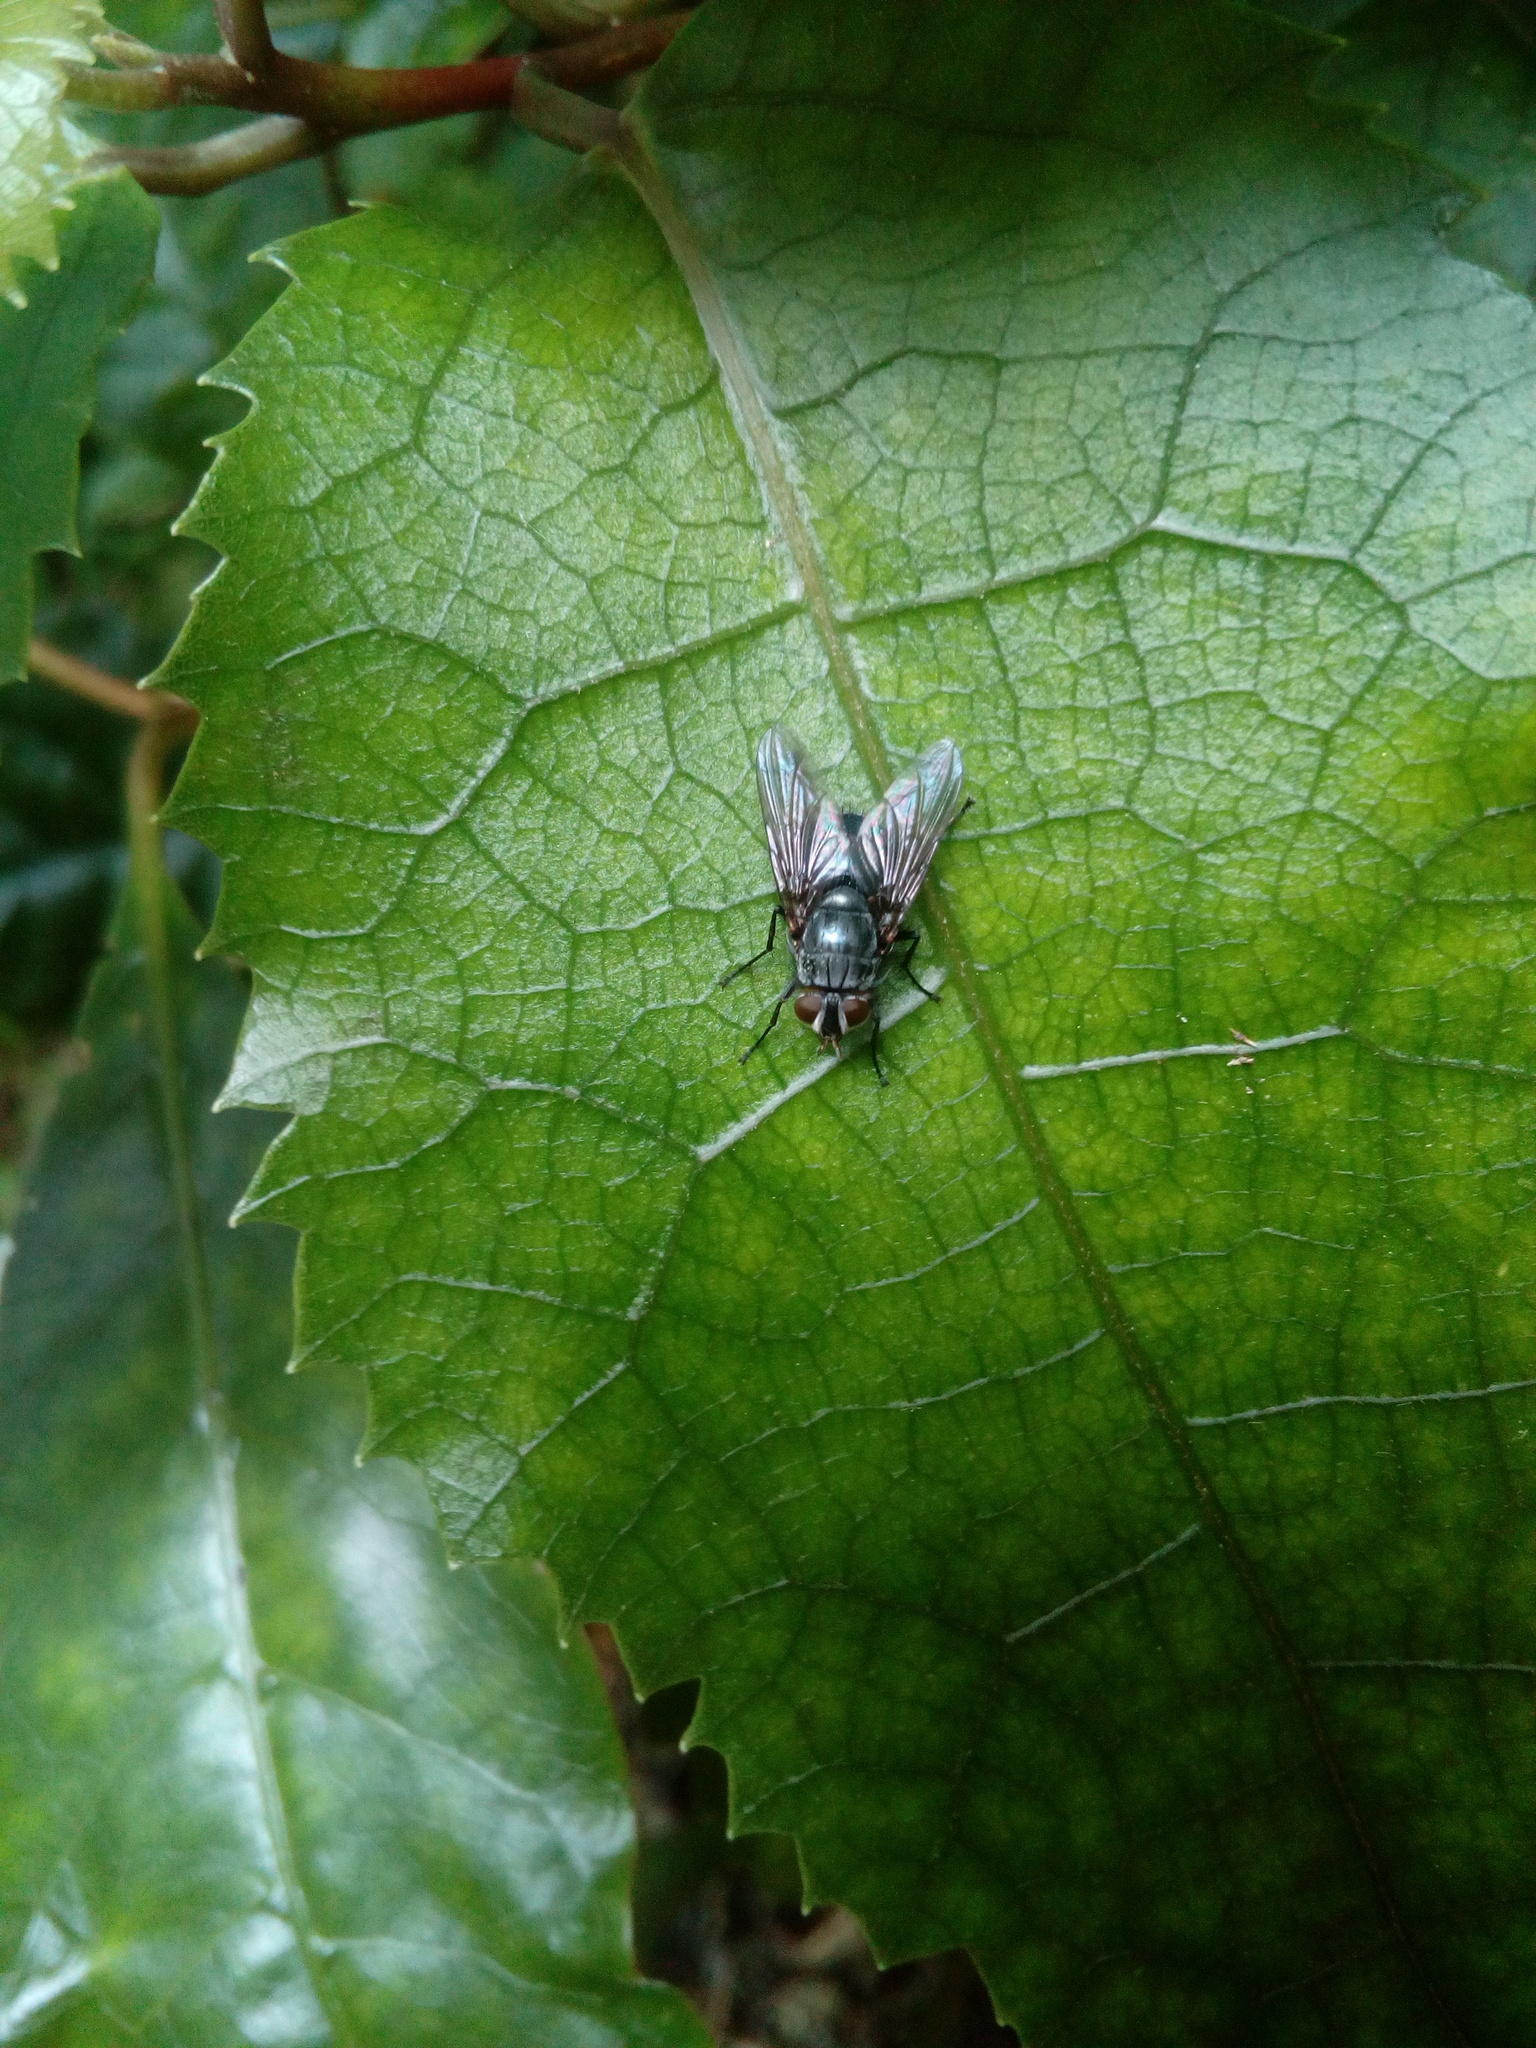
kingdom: Animalia
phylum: Arthropoda
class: Insecta
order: Diptera
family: Calliphoridae
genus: Calliphora
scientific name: Calliphora vicina
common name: Common blow flie
